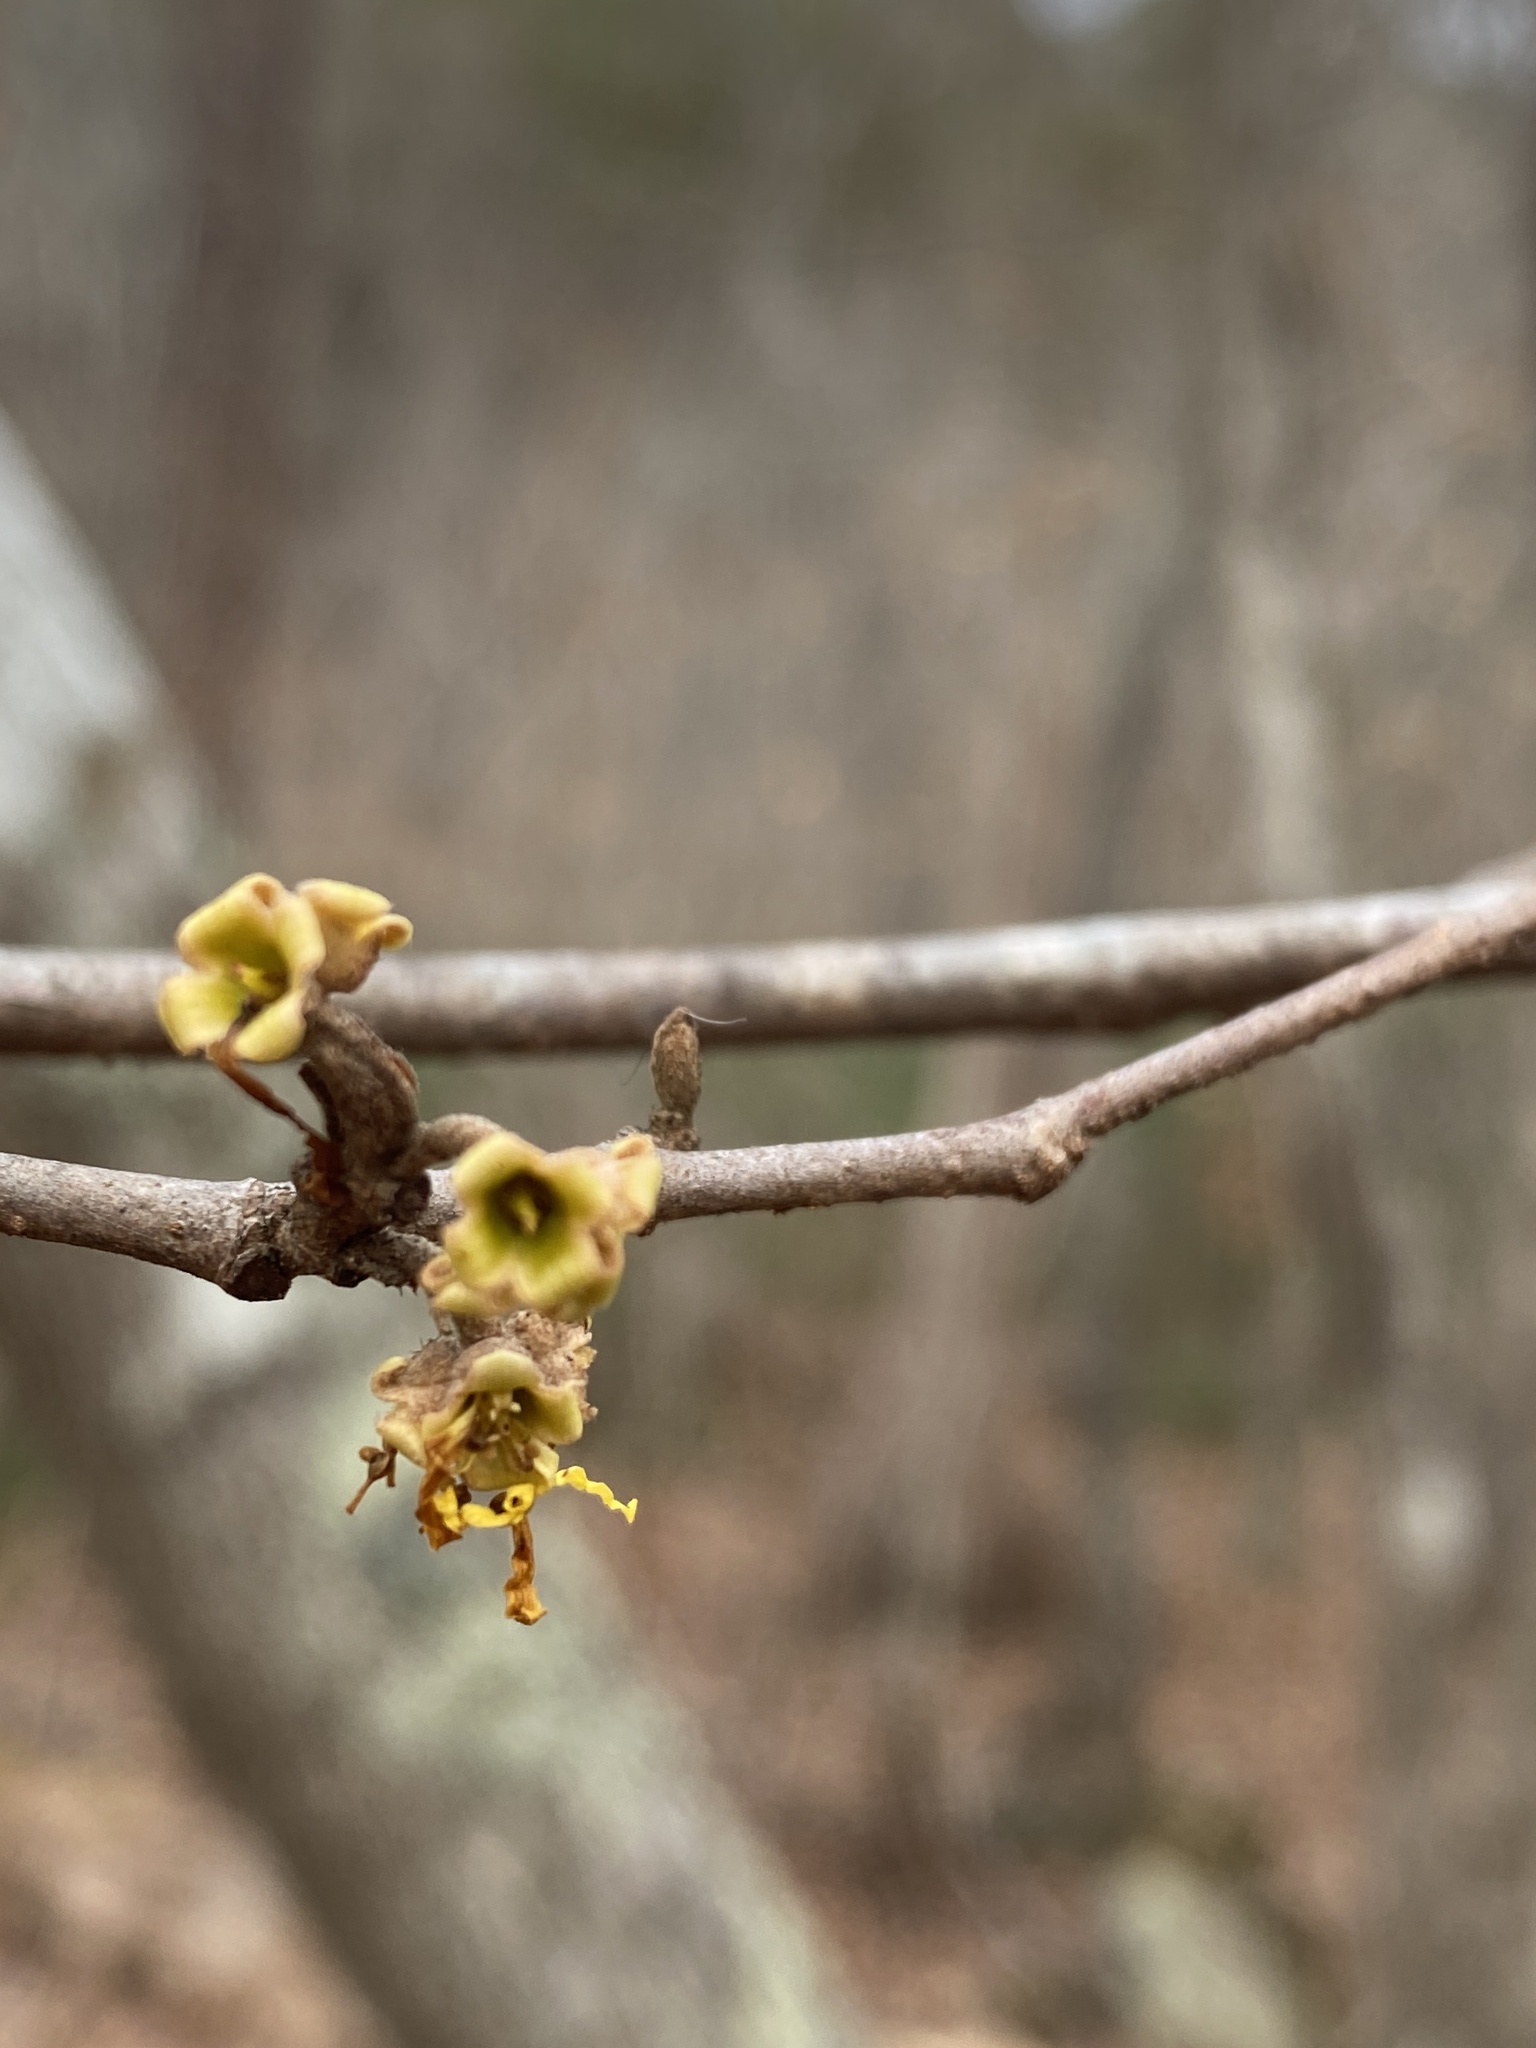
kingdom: Plantae
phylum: Tracheophyta
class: Magnoliopsida
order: Saxifragales
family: Hamamelidaceae
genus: Hamamelis
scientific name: Hamamelis virginiana
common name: Witch-hazel
